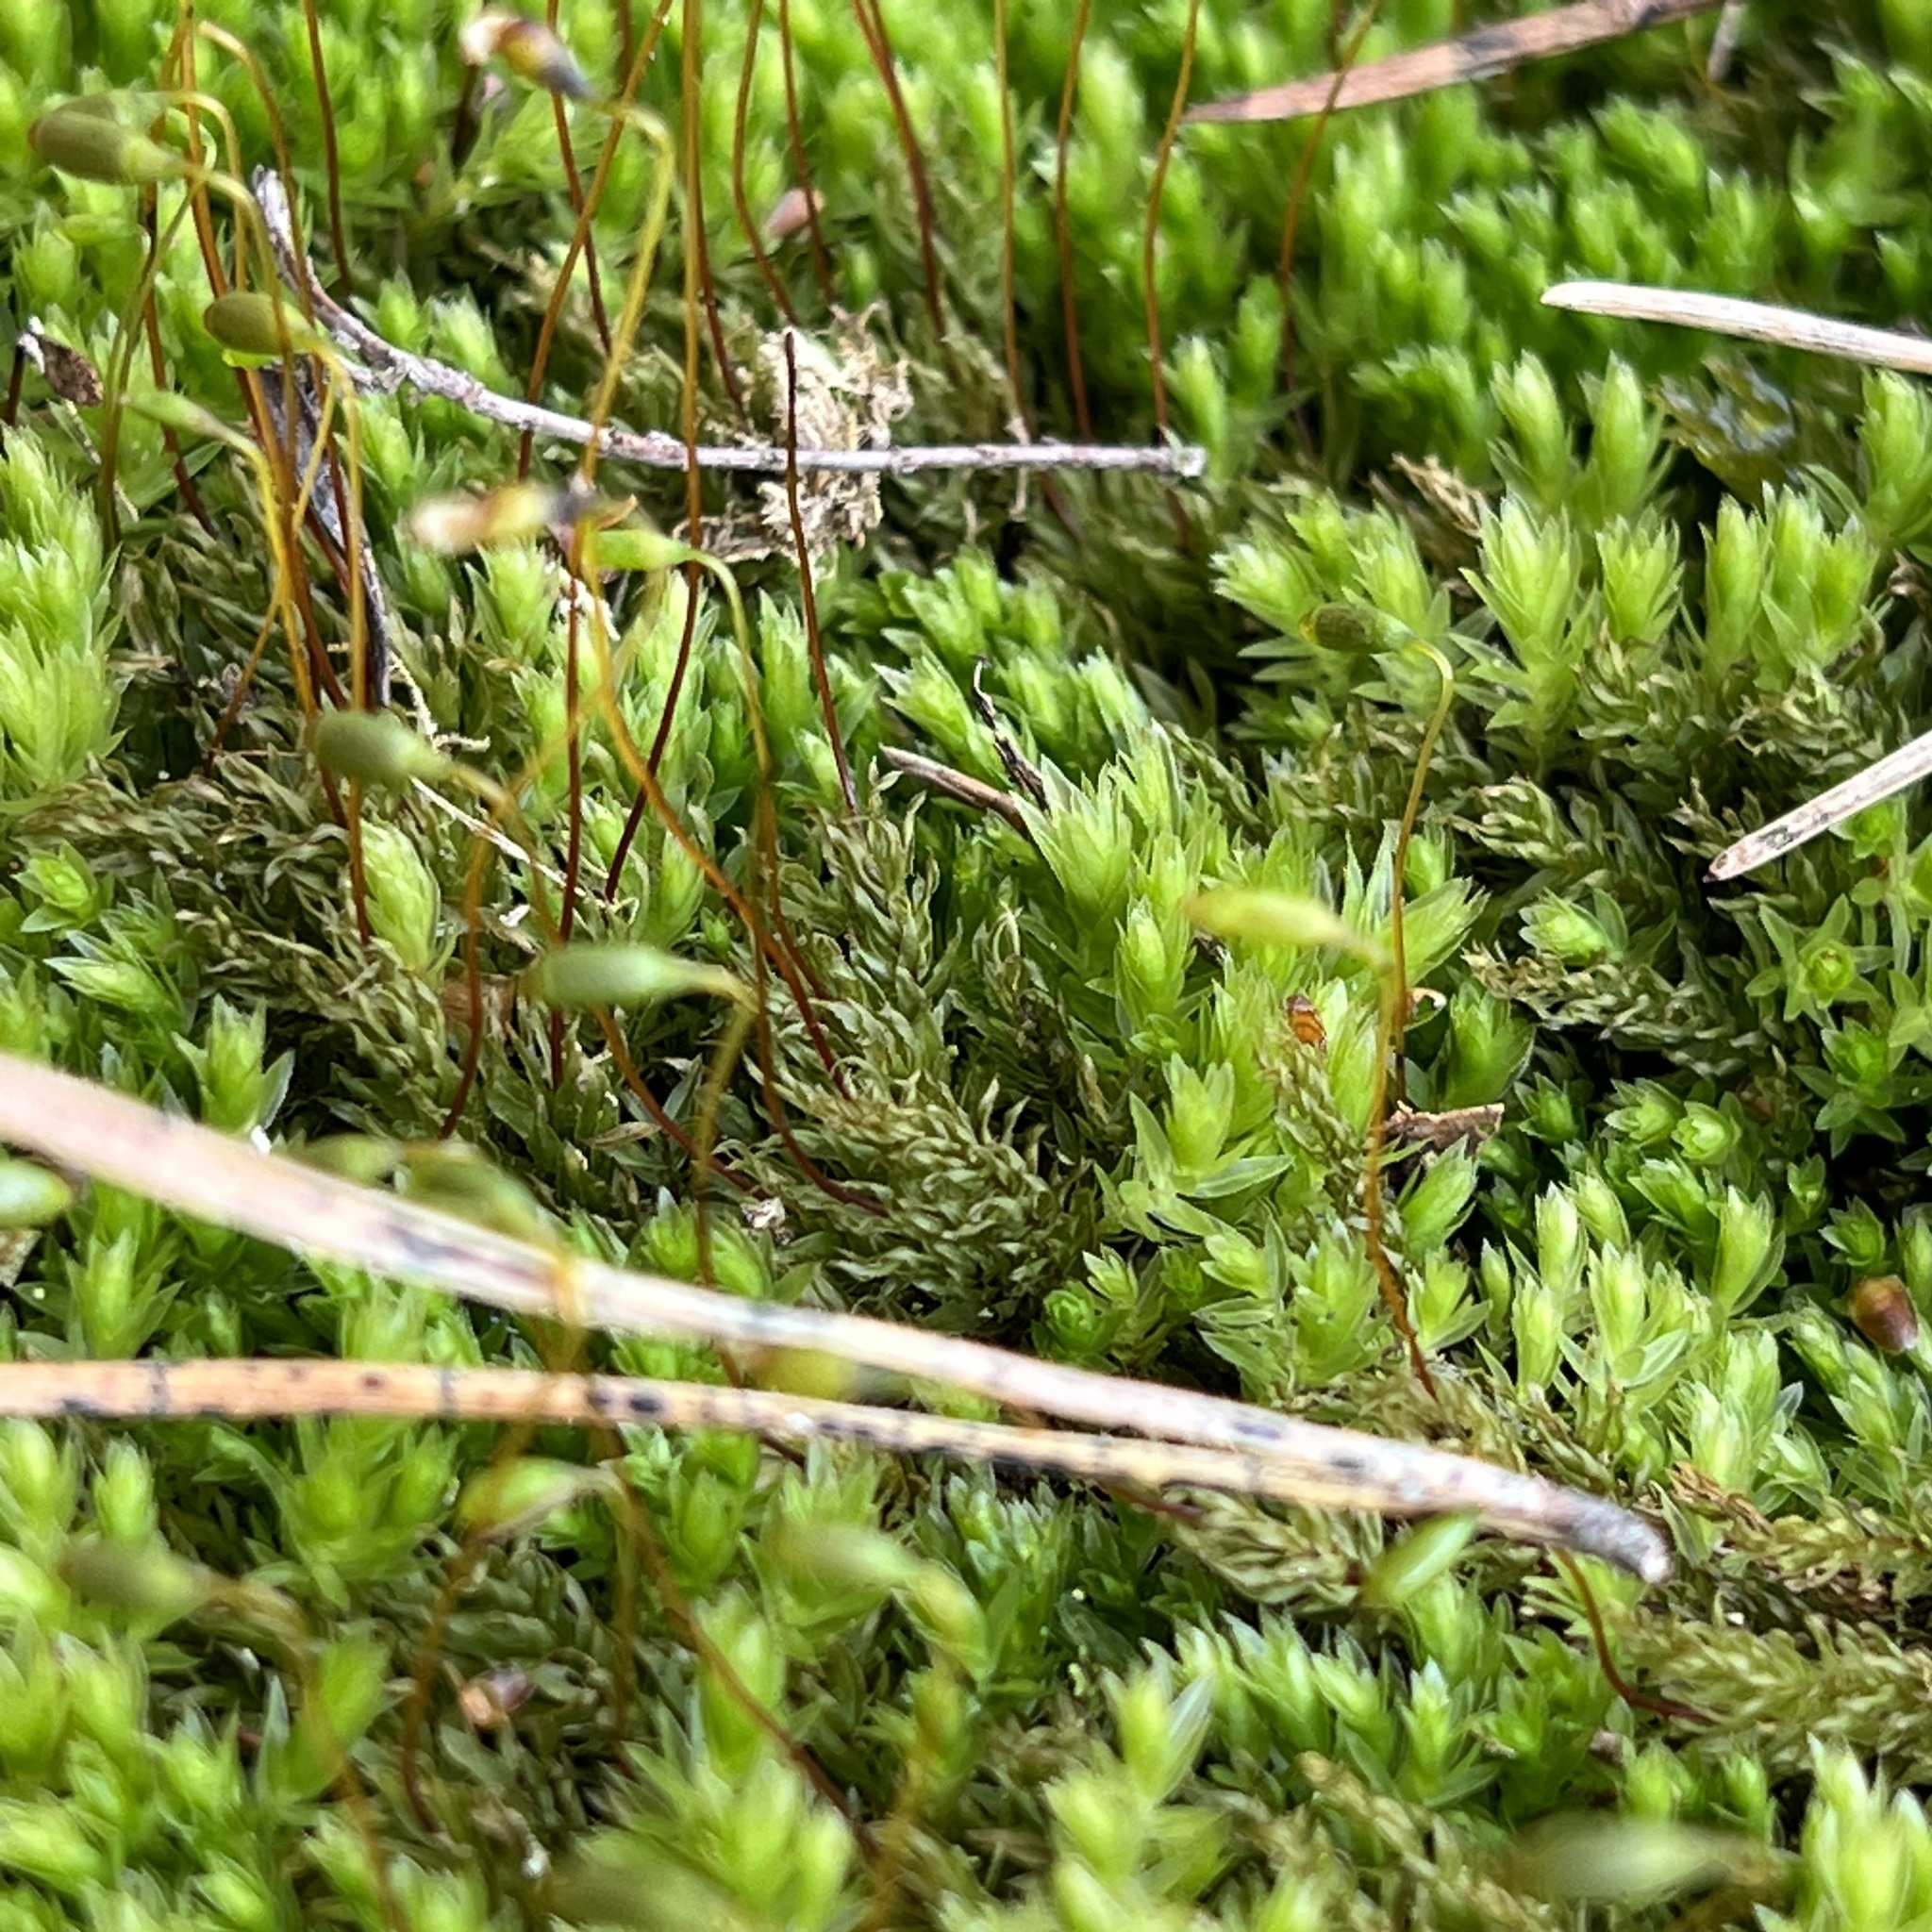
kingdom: Plantae
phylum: Bryophyta
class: Bryopsida
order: Bryales
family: Mniaceae
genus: Mnium
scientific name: Mnium hornum
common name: Swan's-neck leafy moss
